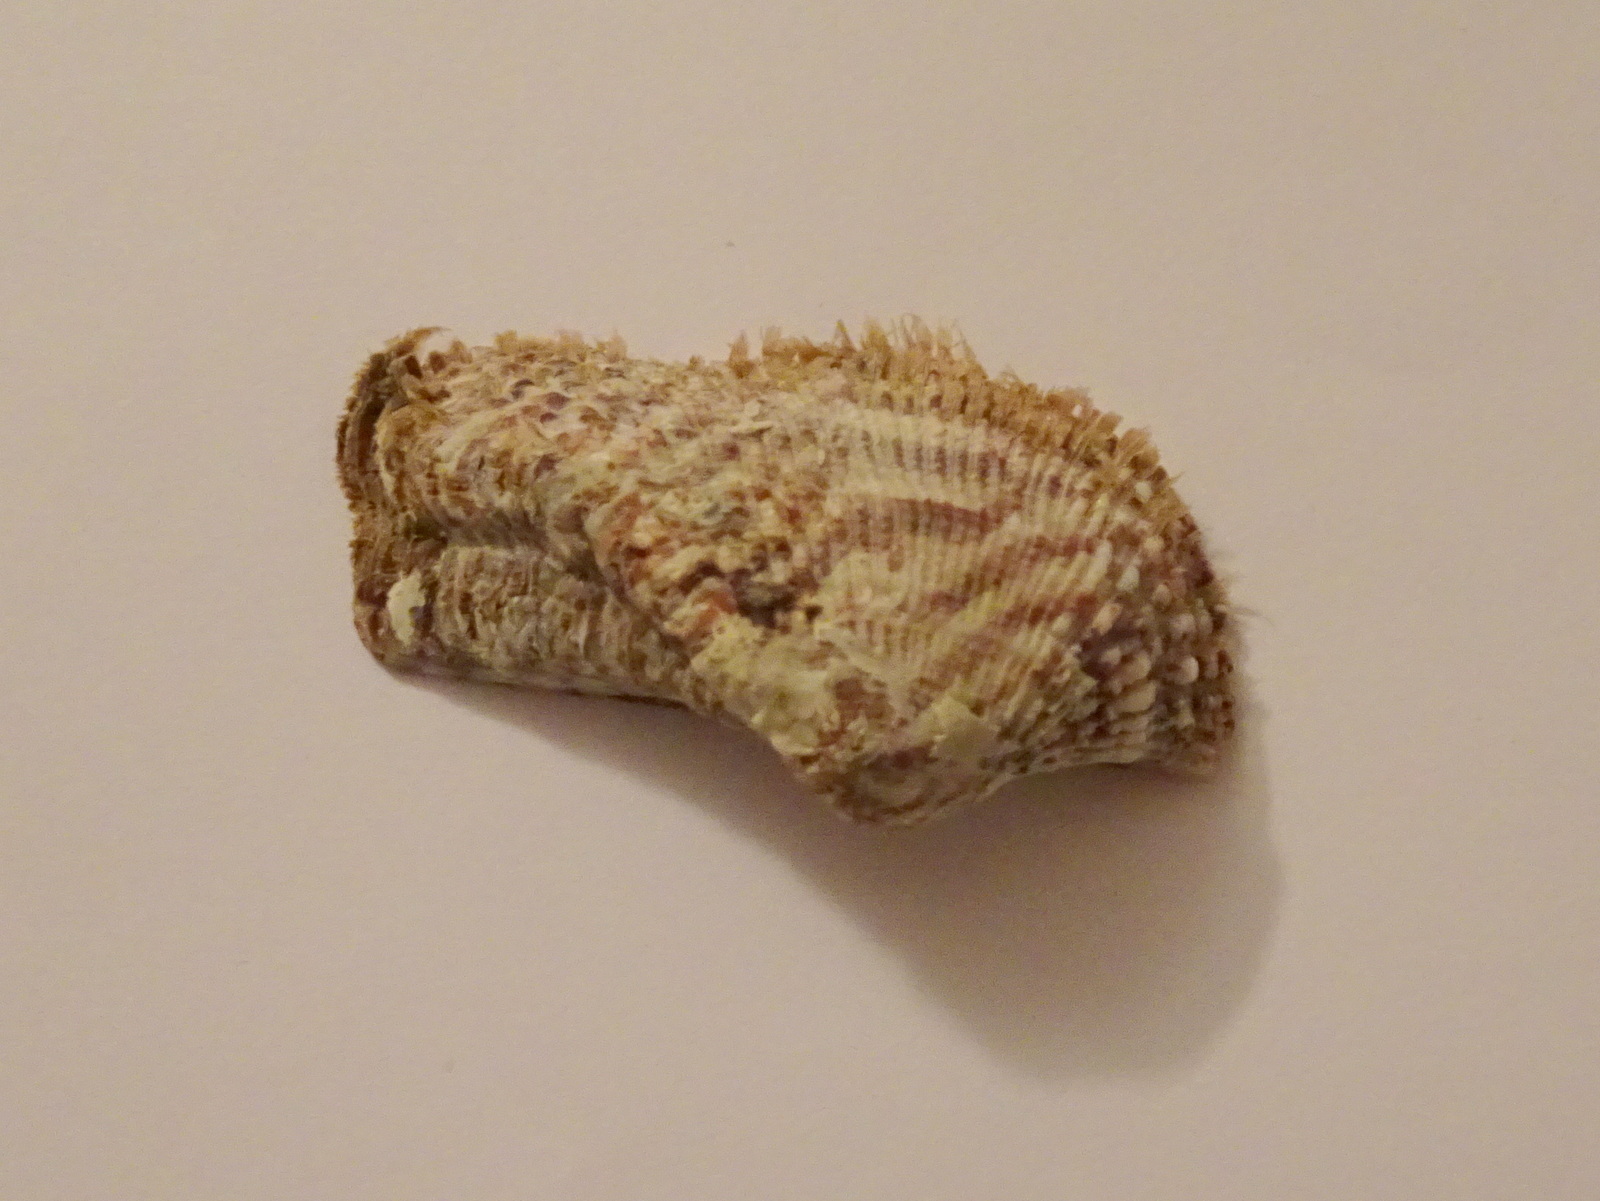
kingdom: Animalia
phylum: Mollusca
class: Bivalvia
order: Arcida
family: Arcidae
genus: Arca
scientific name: Arca noae
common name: Noah's arch
